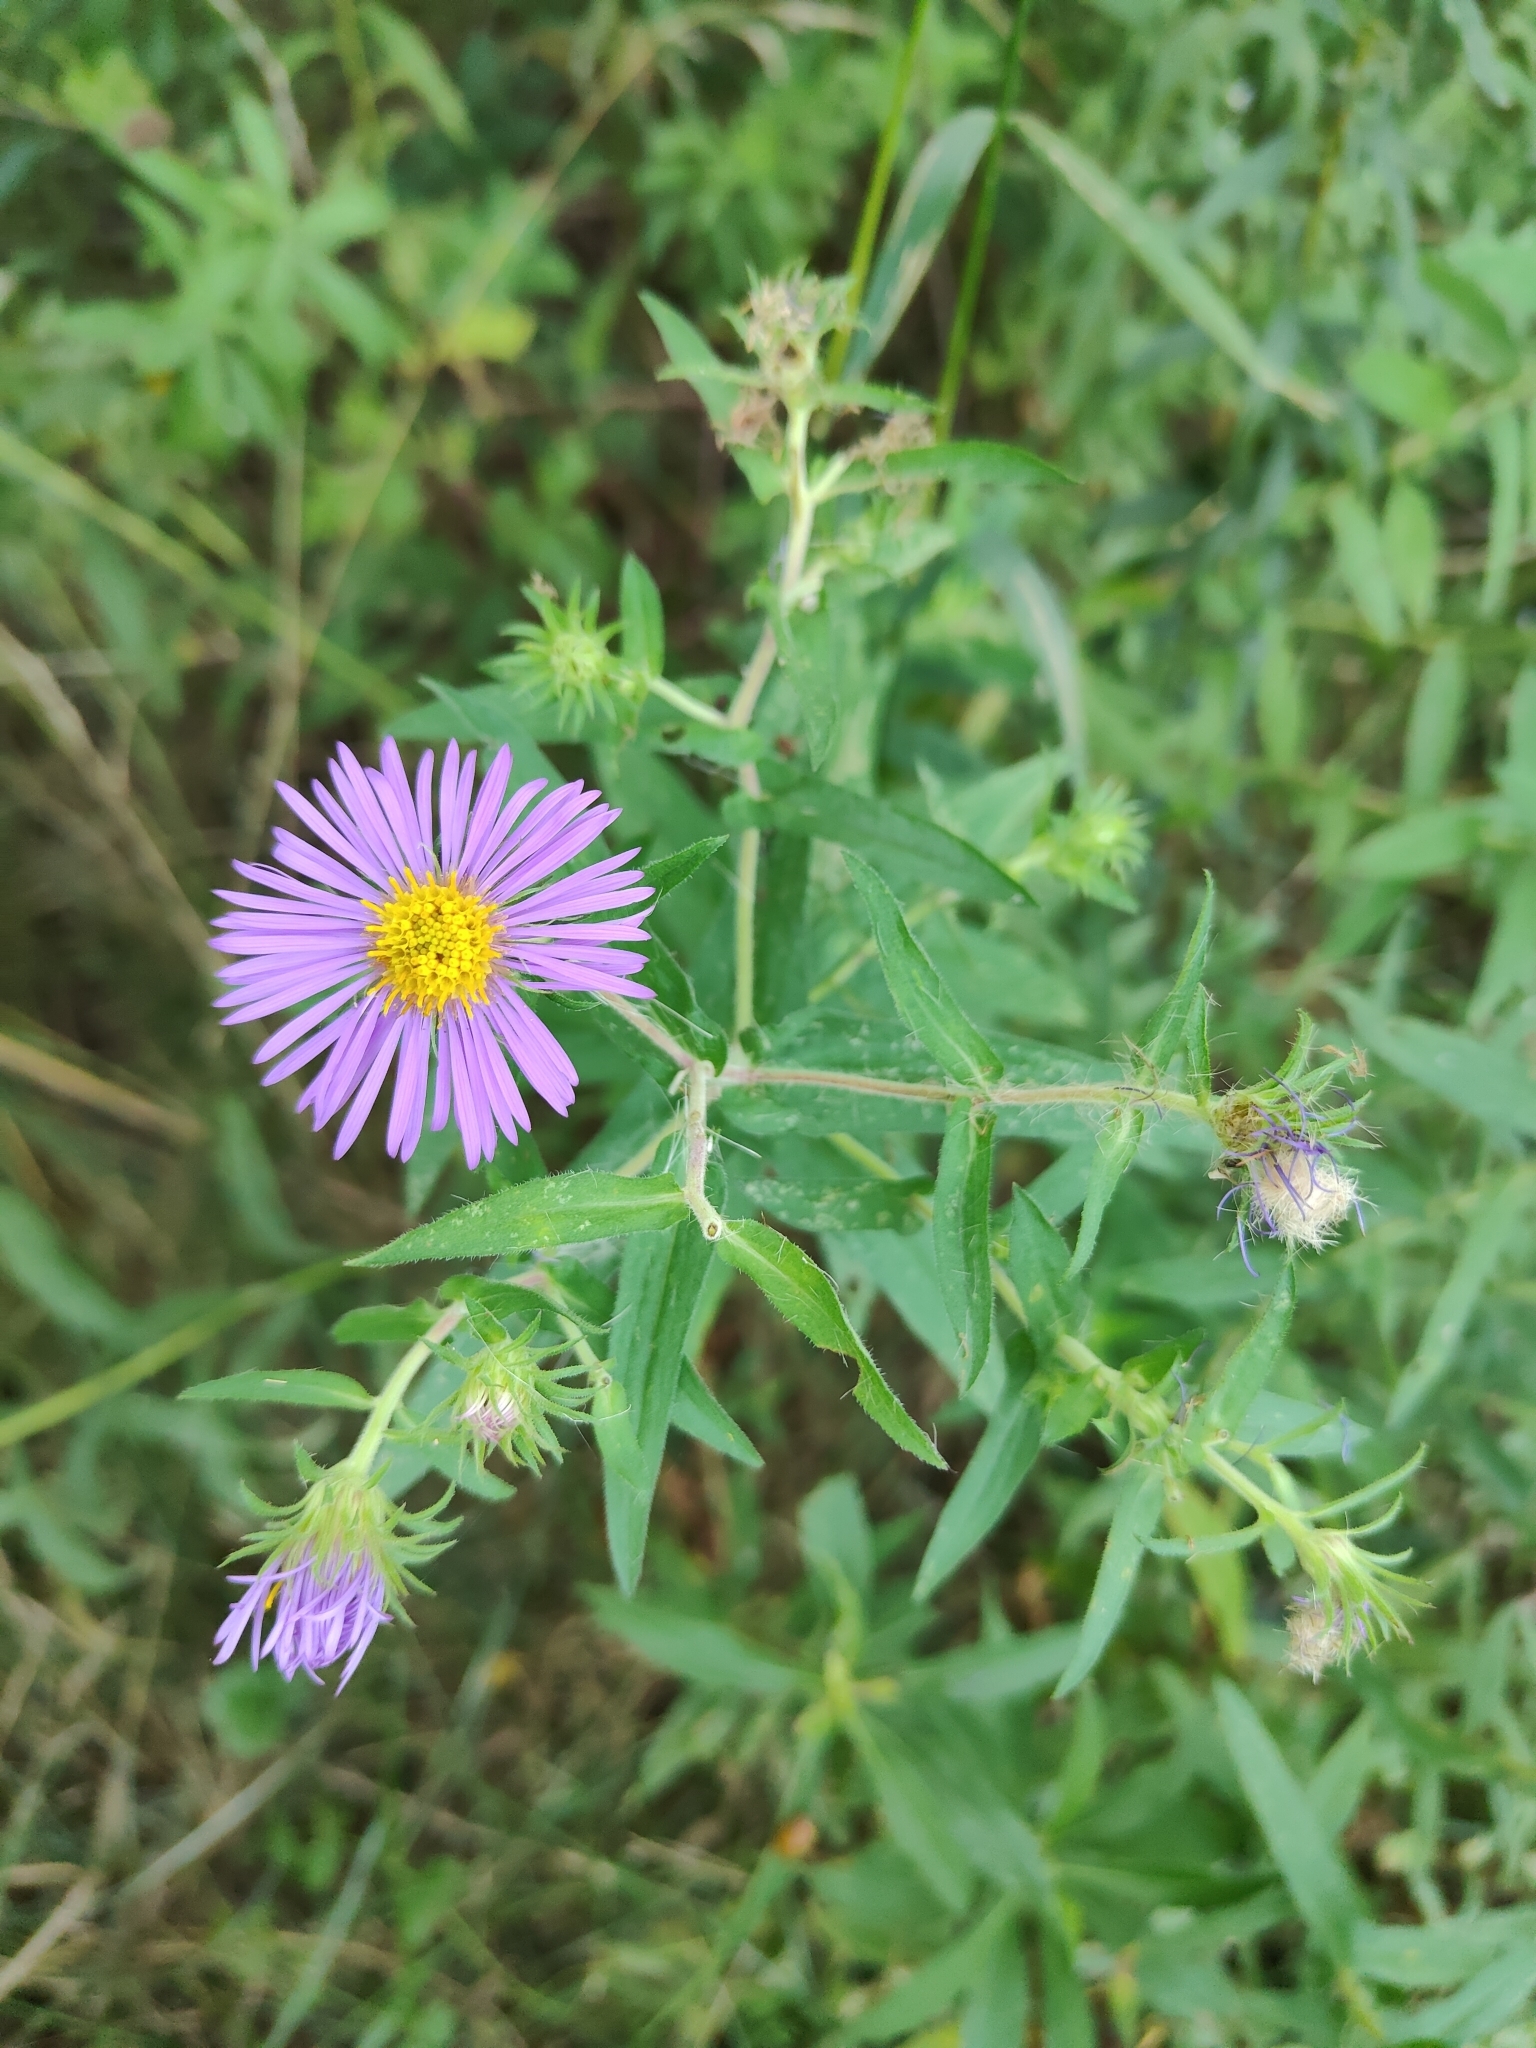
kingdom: Plantae
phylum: Tracheophyta
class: Magnoliopsida
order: Asterales
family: Asteraceae
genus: Symphyotrichum
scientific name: Symphyotrichum novae-angliae
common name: Michaelmas daisy
